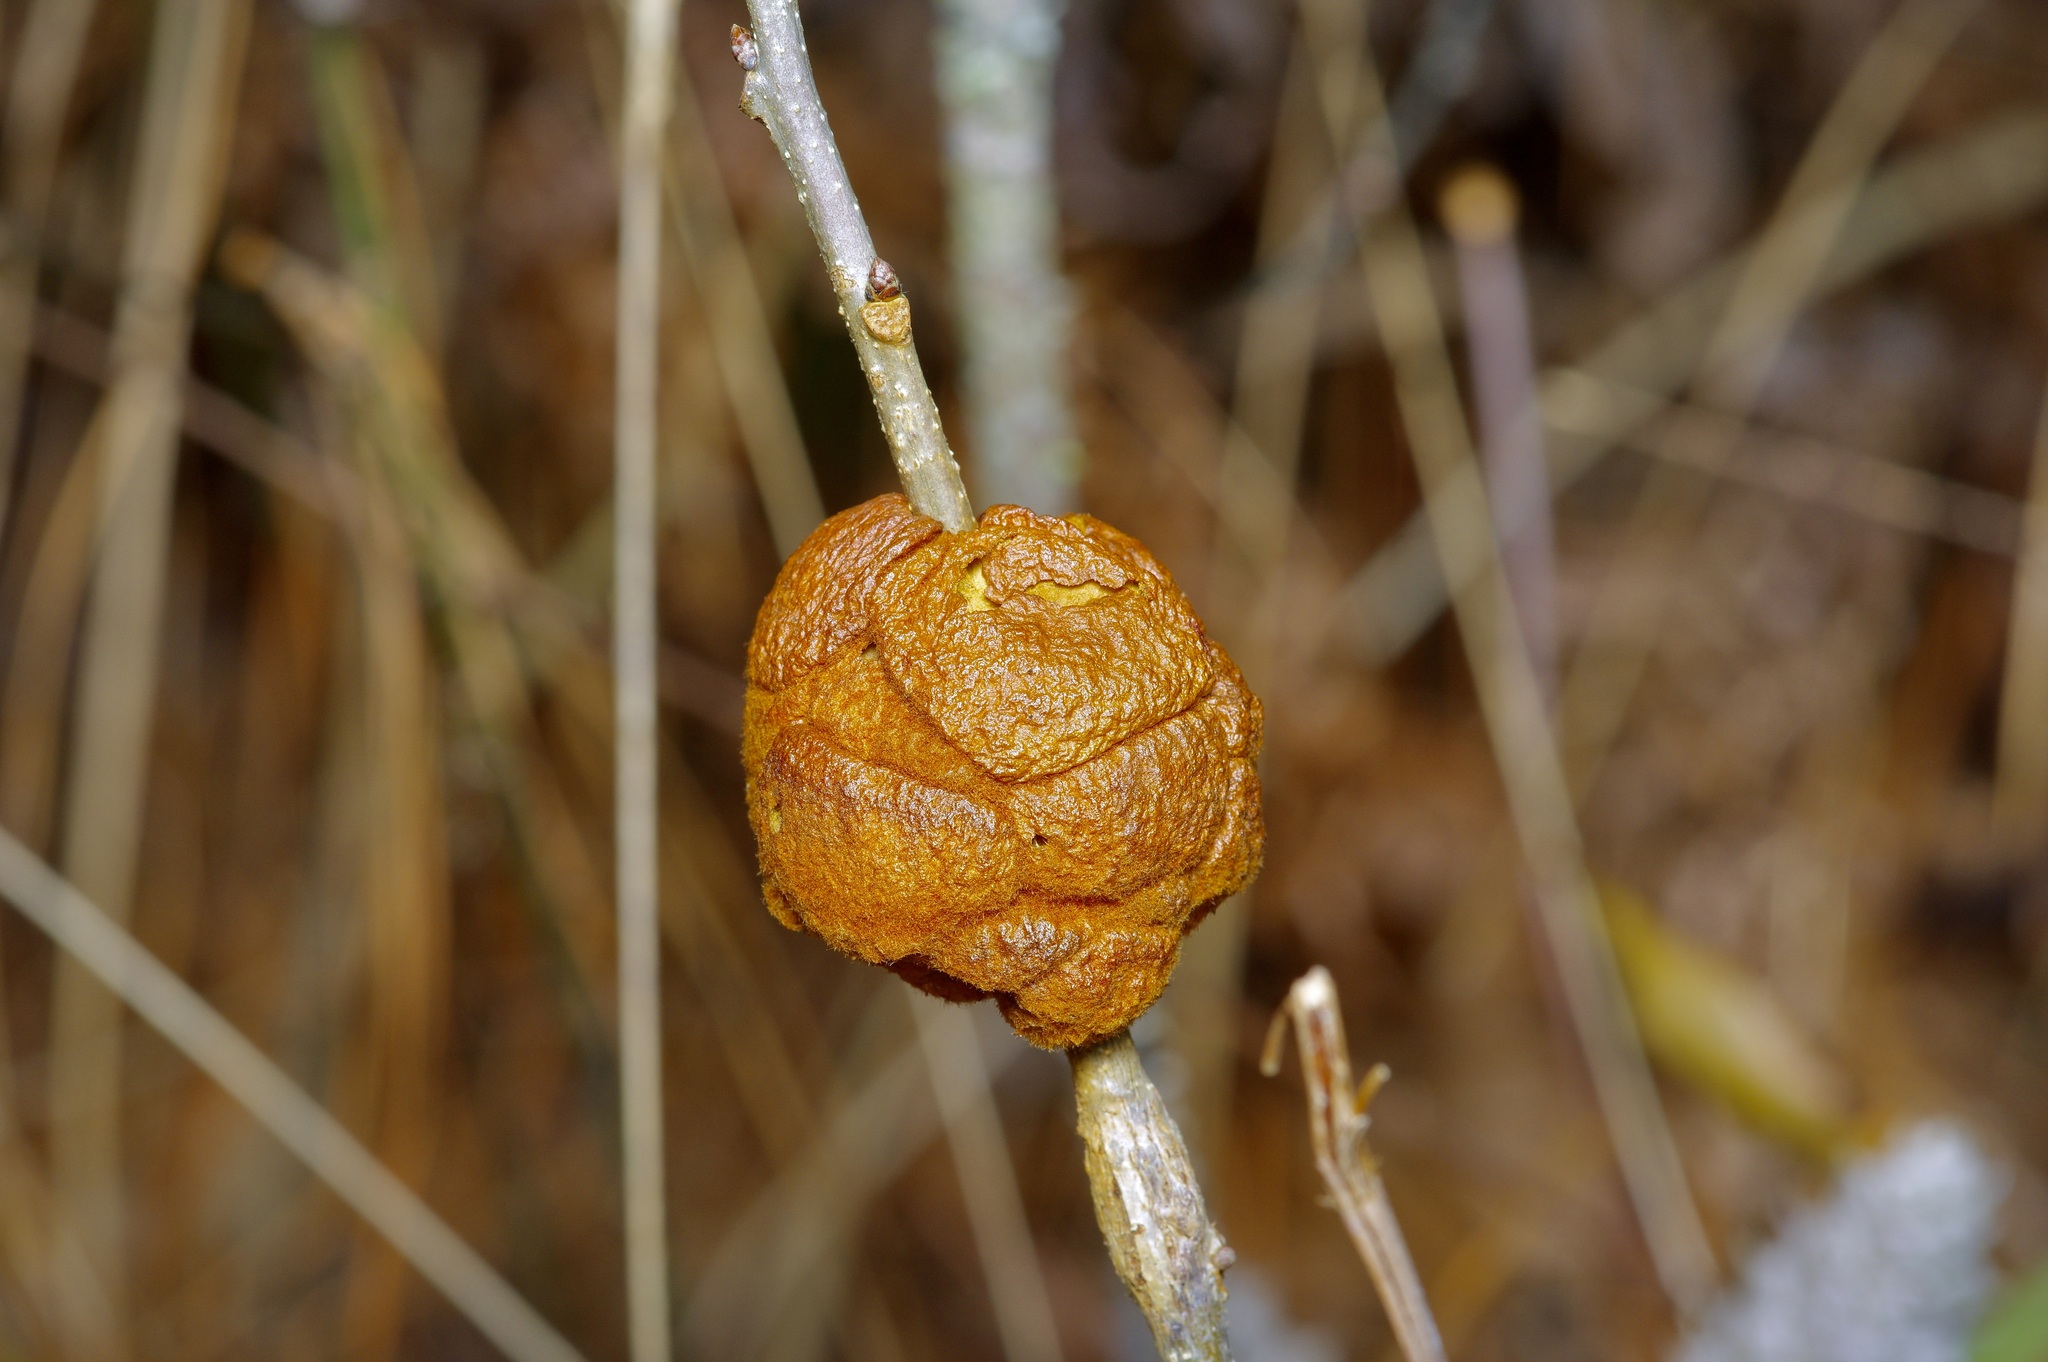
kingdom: Animalia
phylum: Arthropoda
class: Insecta
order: Hymenoptera
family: Cynipidae
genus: Disholcaspis
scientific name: Disholcaspis
